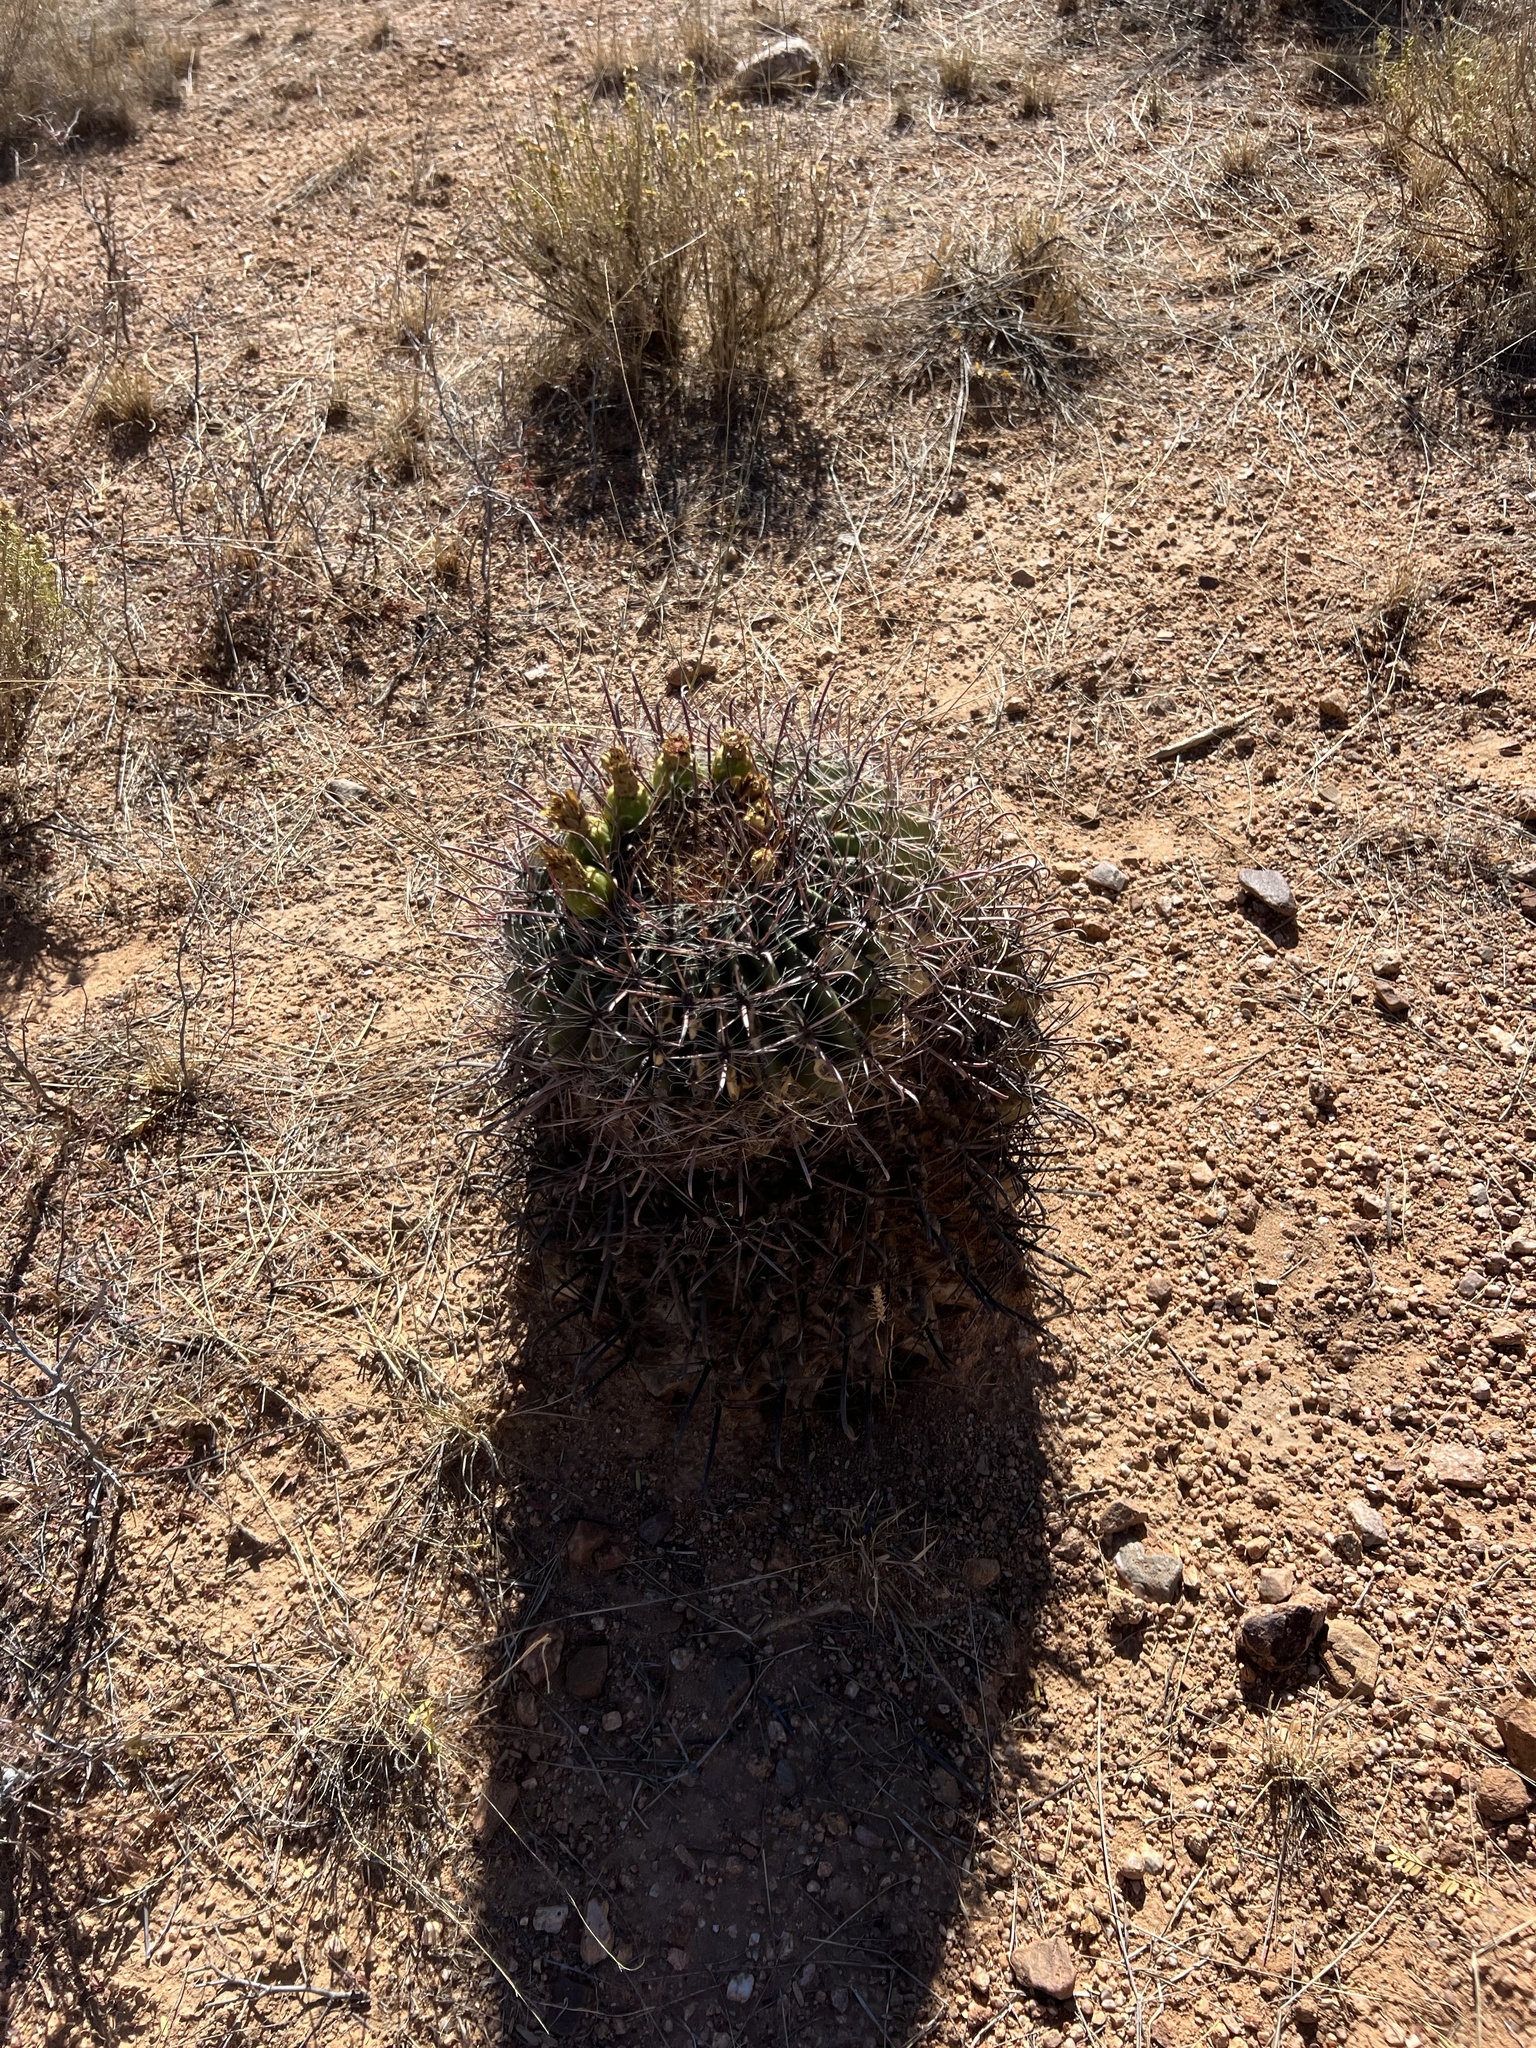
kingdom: Plantae
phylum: Tracheophyta
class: Magnoliopsida
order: Caryophyllales
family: Cactaceae
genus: Ferocactus
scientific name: Ferocactus wislizeni
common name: Candy barrel cactus
